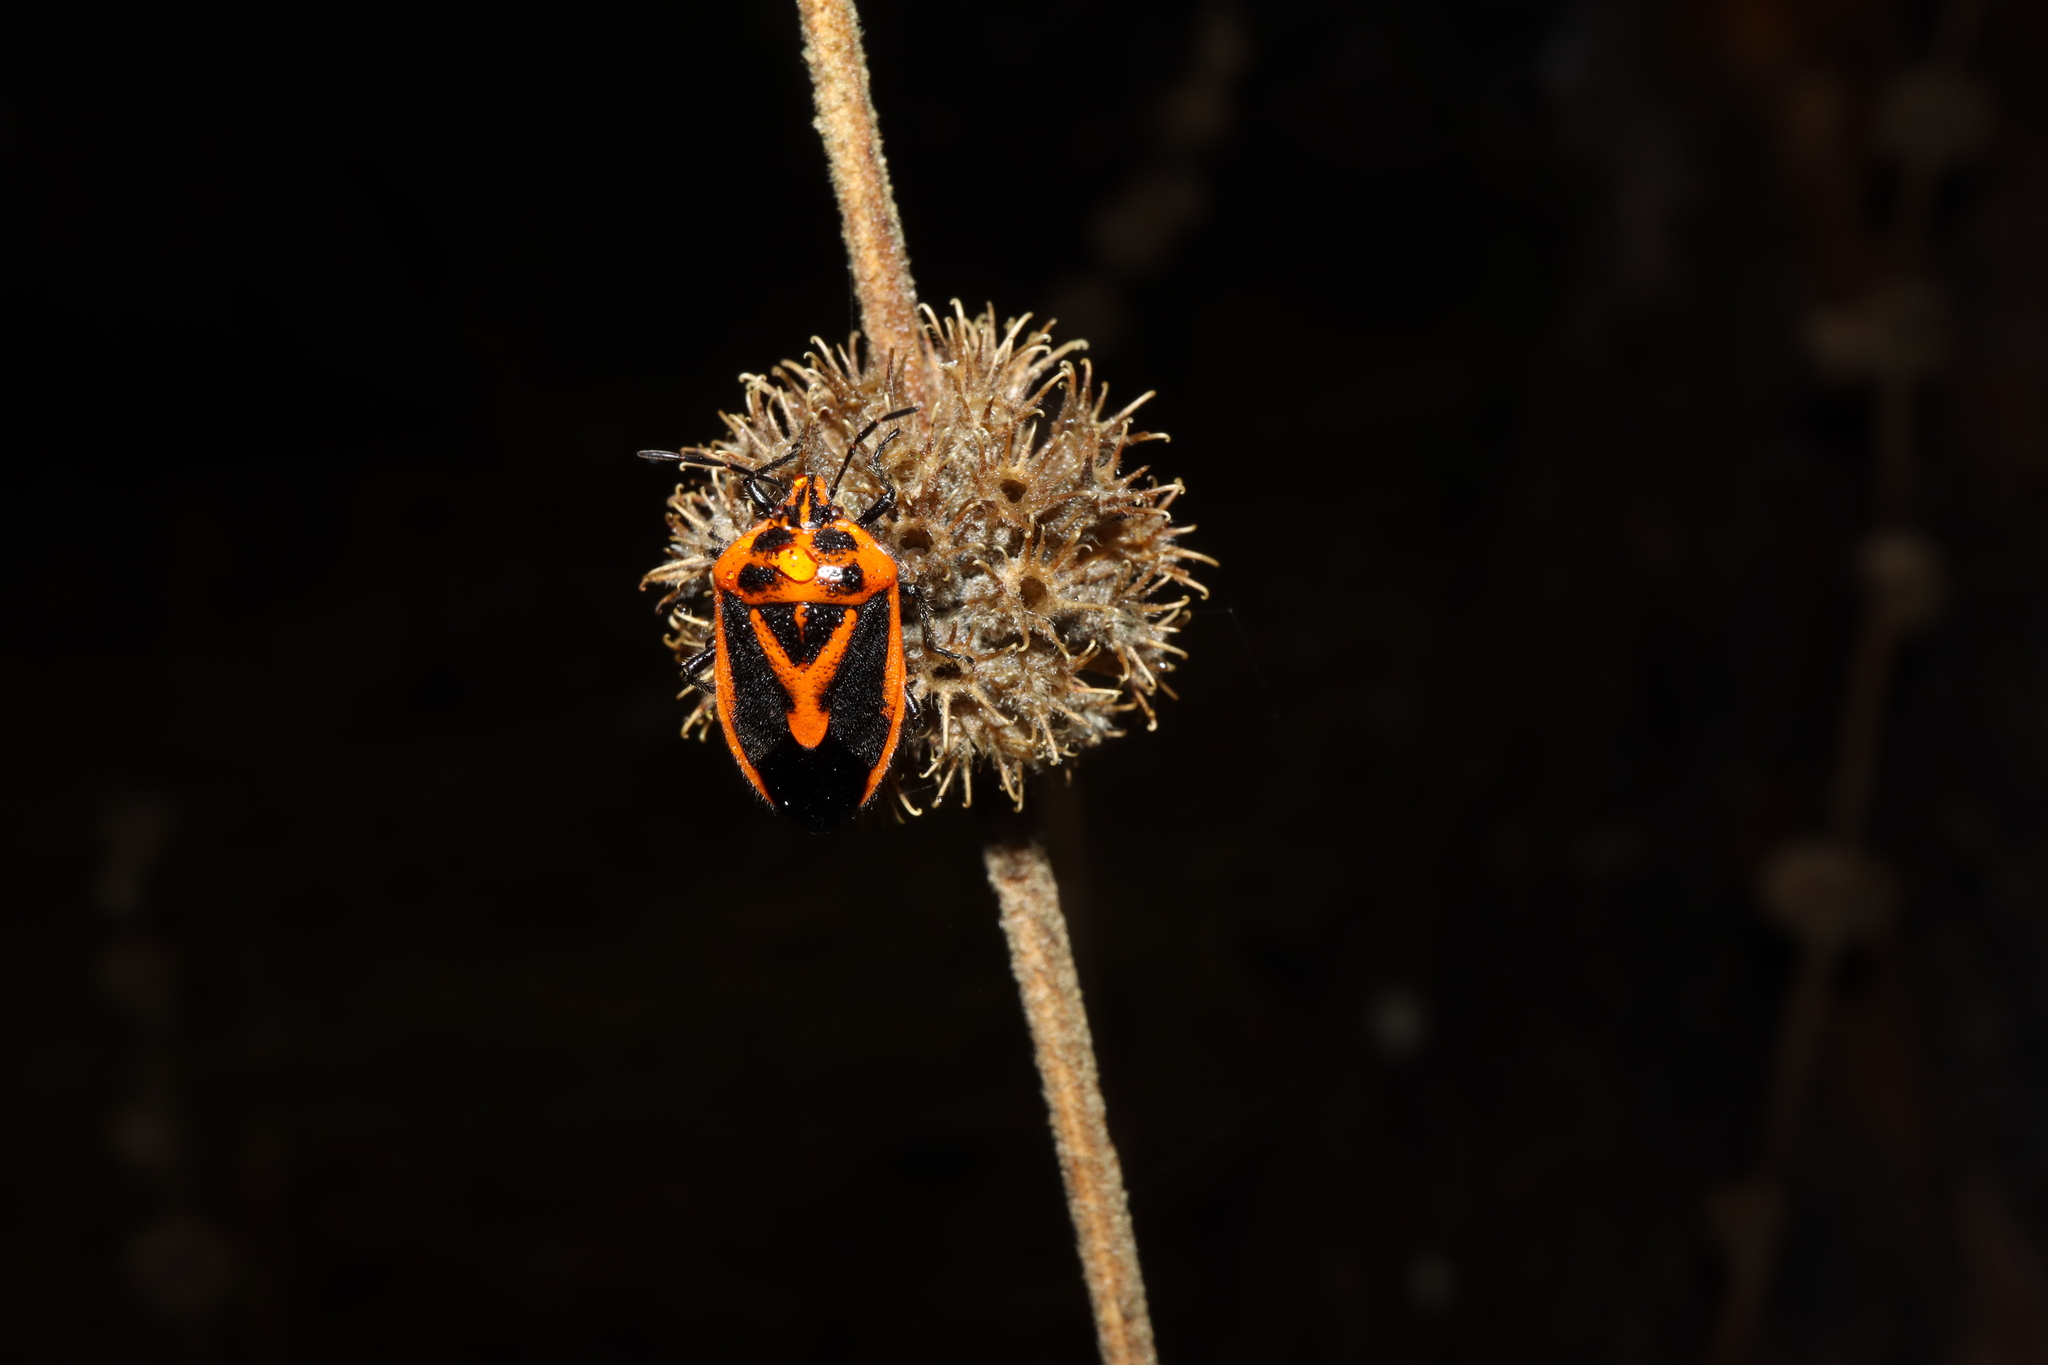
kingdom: Animalia
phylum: Arthropoda
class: Insecta
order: Hemiptera
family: Pentatomidae
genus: Agonoscelis
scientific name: Agonoscelis rutila
